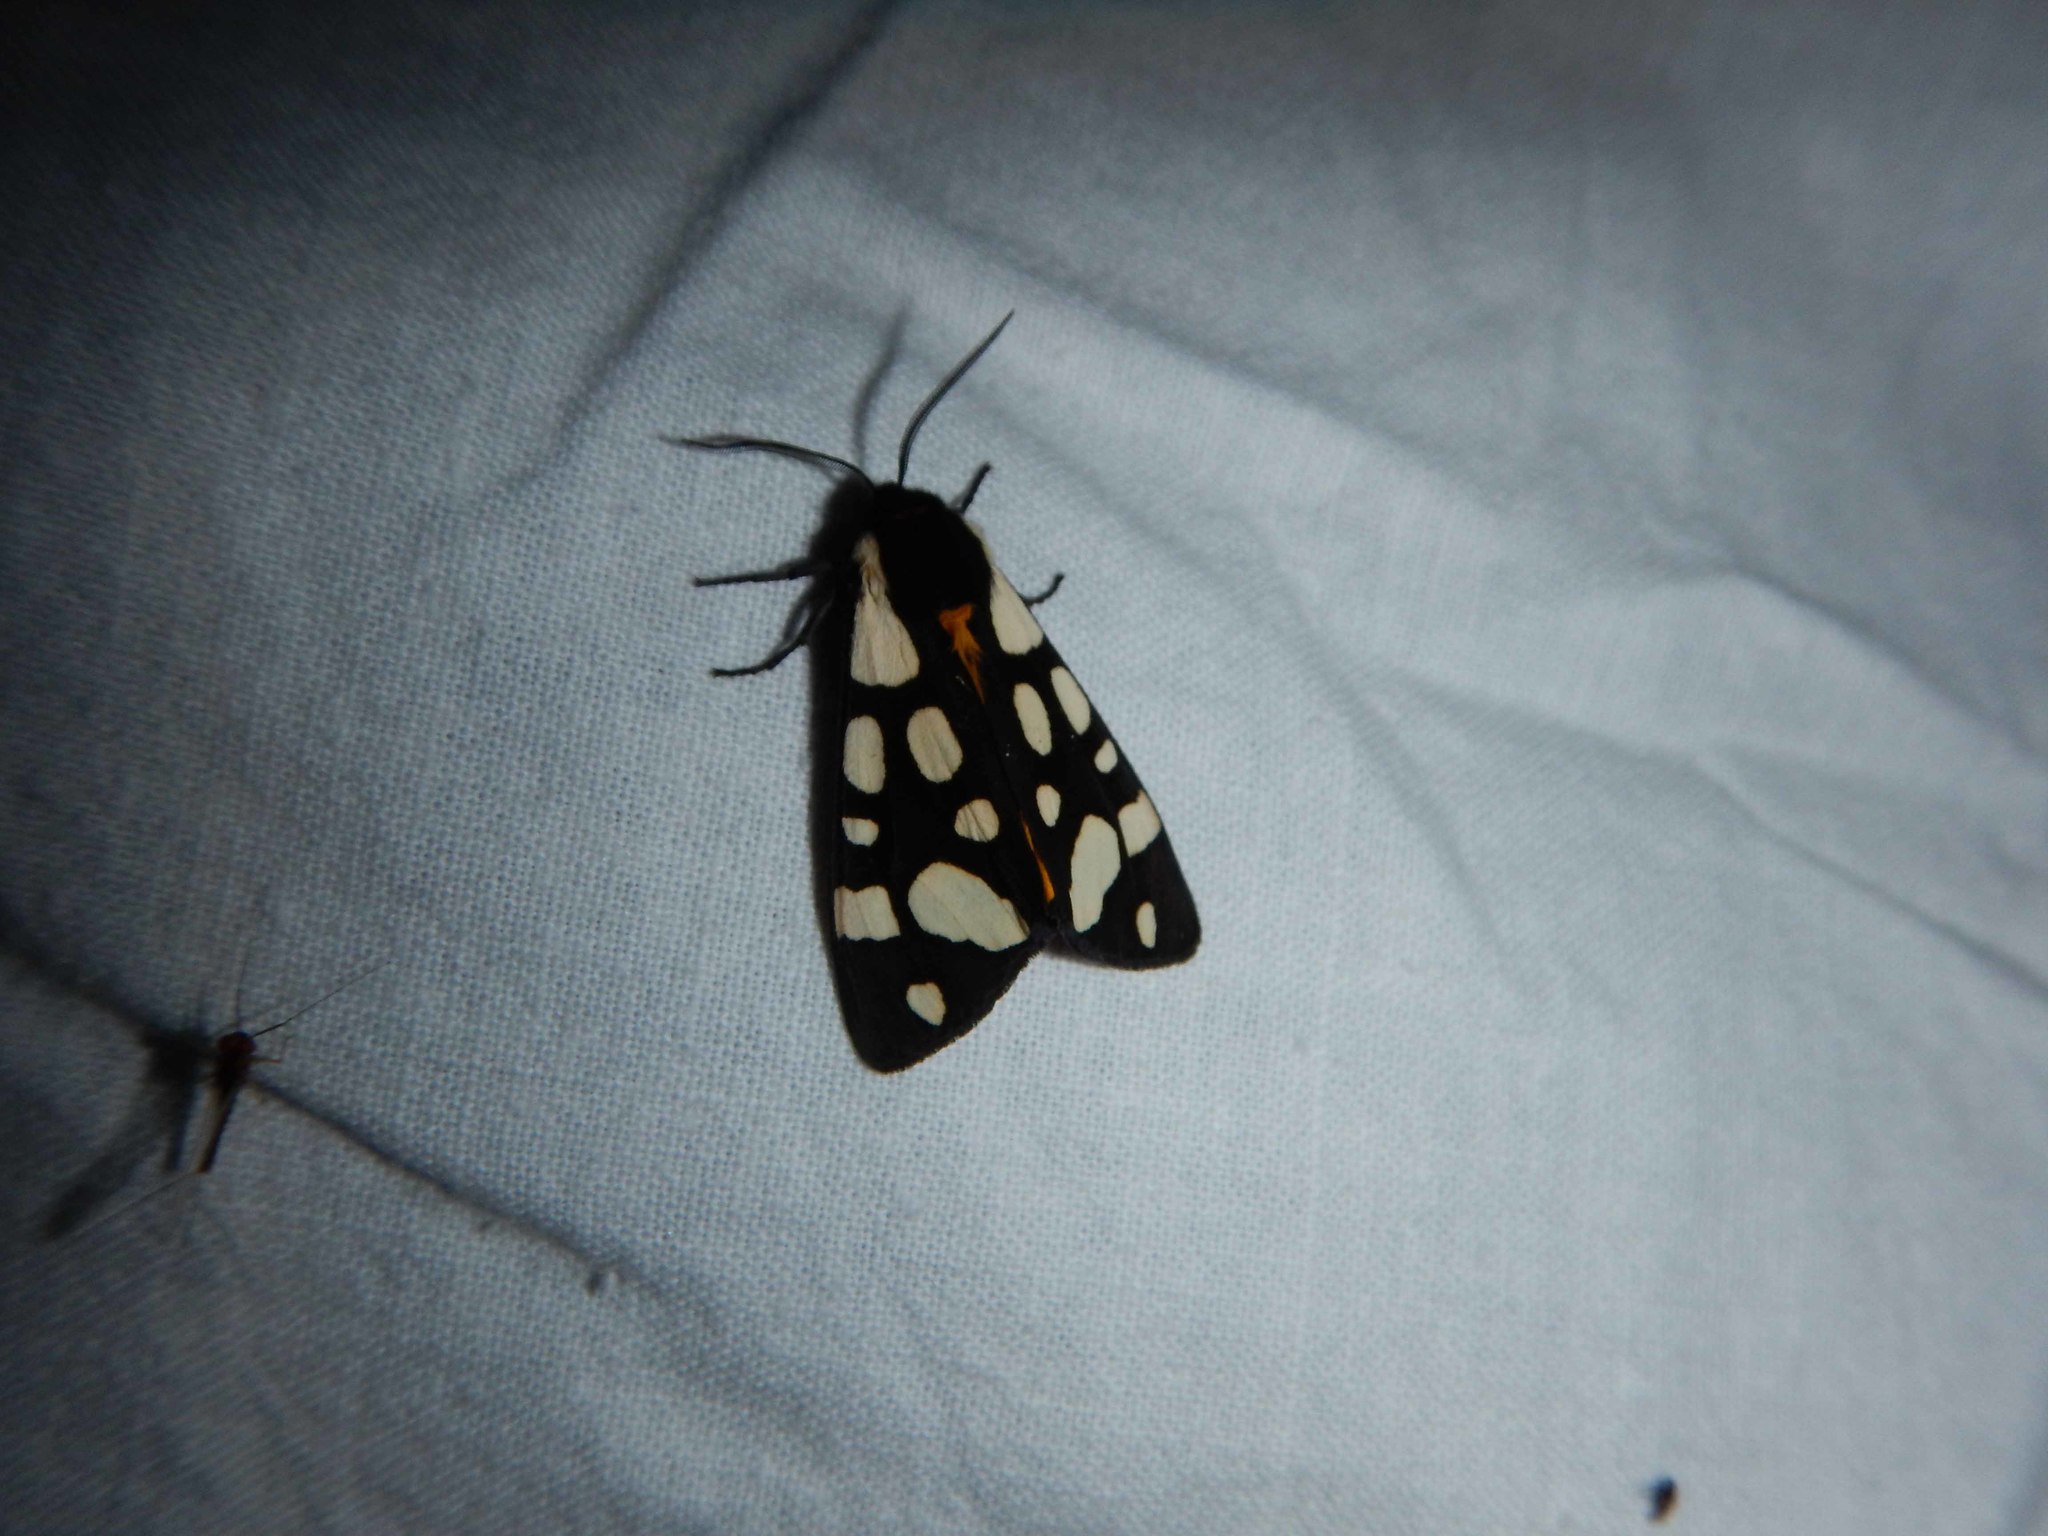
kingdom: Animalia
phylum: Arthropoda
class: Insecta
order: Lepidoptera
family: Erebidae
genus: Epicallia
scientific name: Epicallia villica
